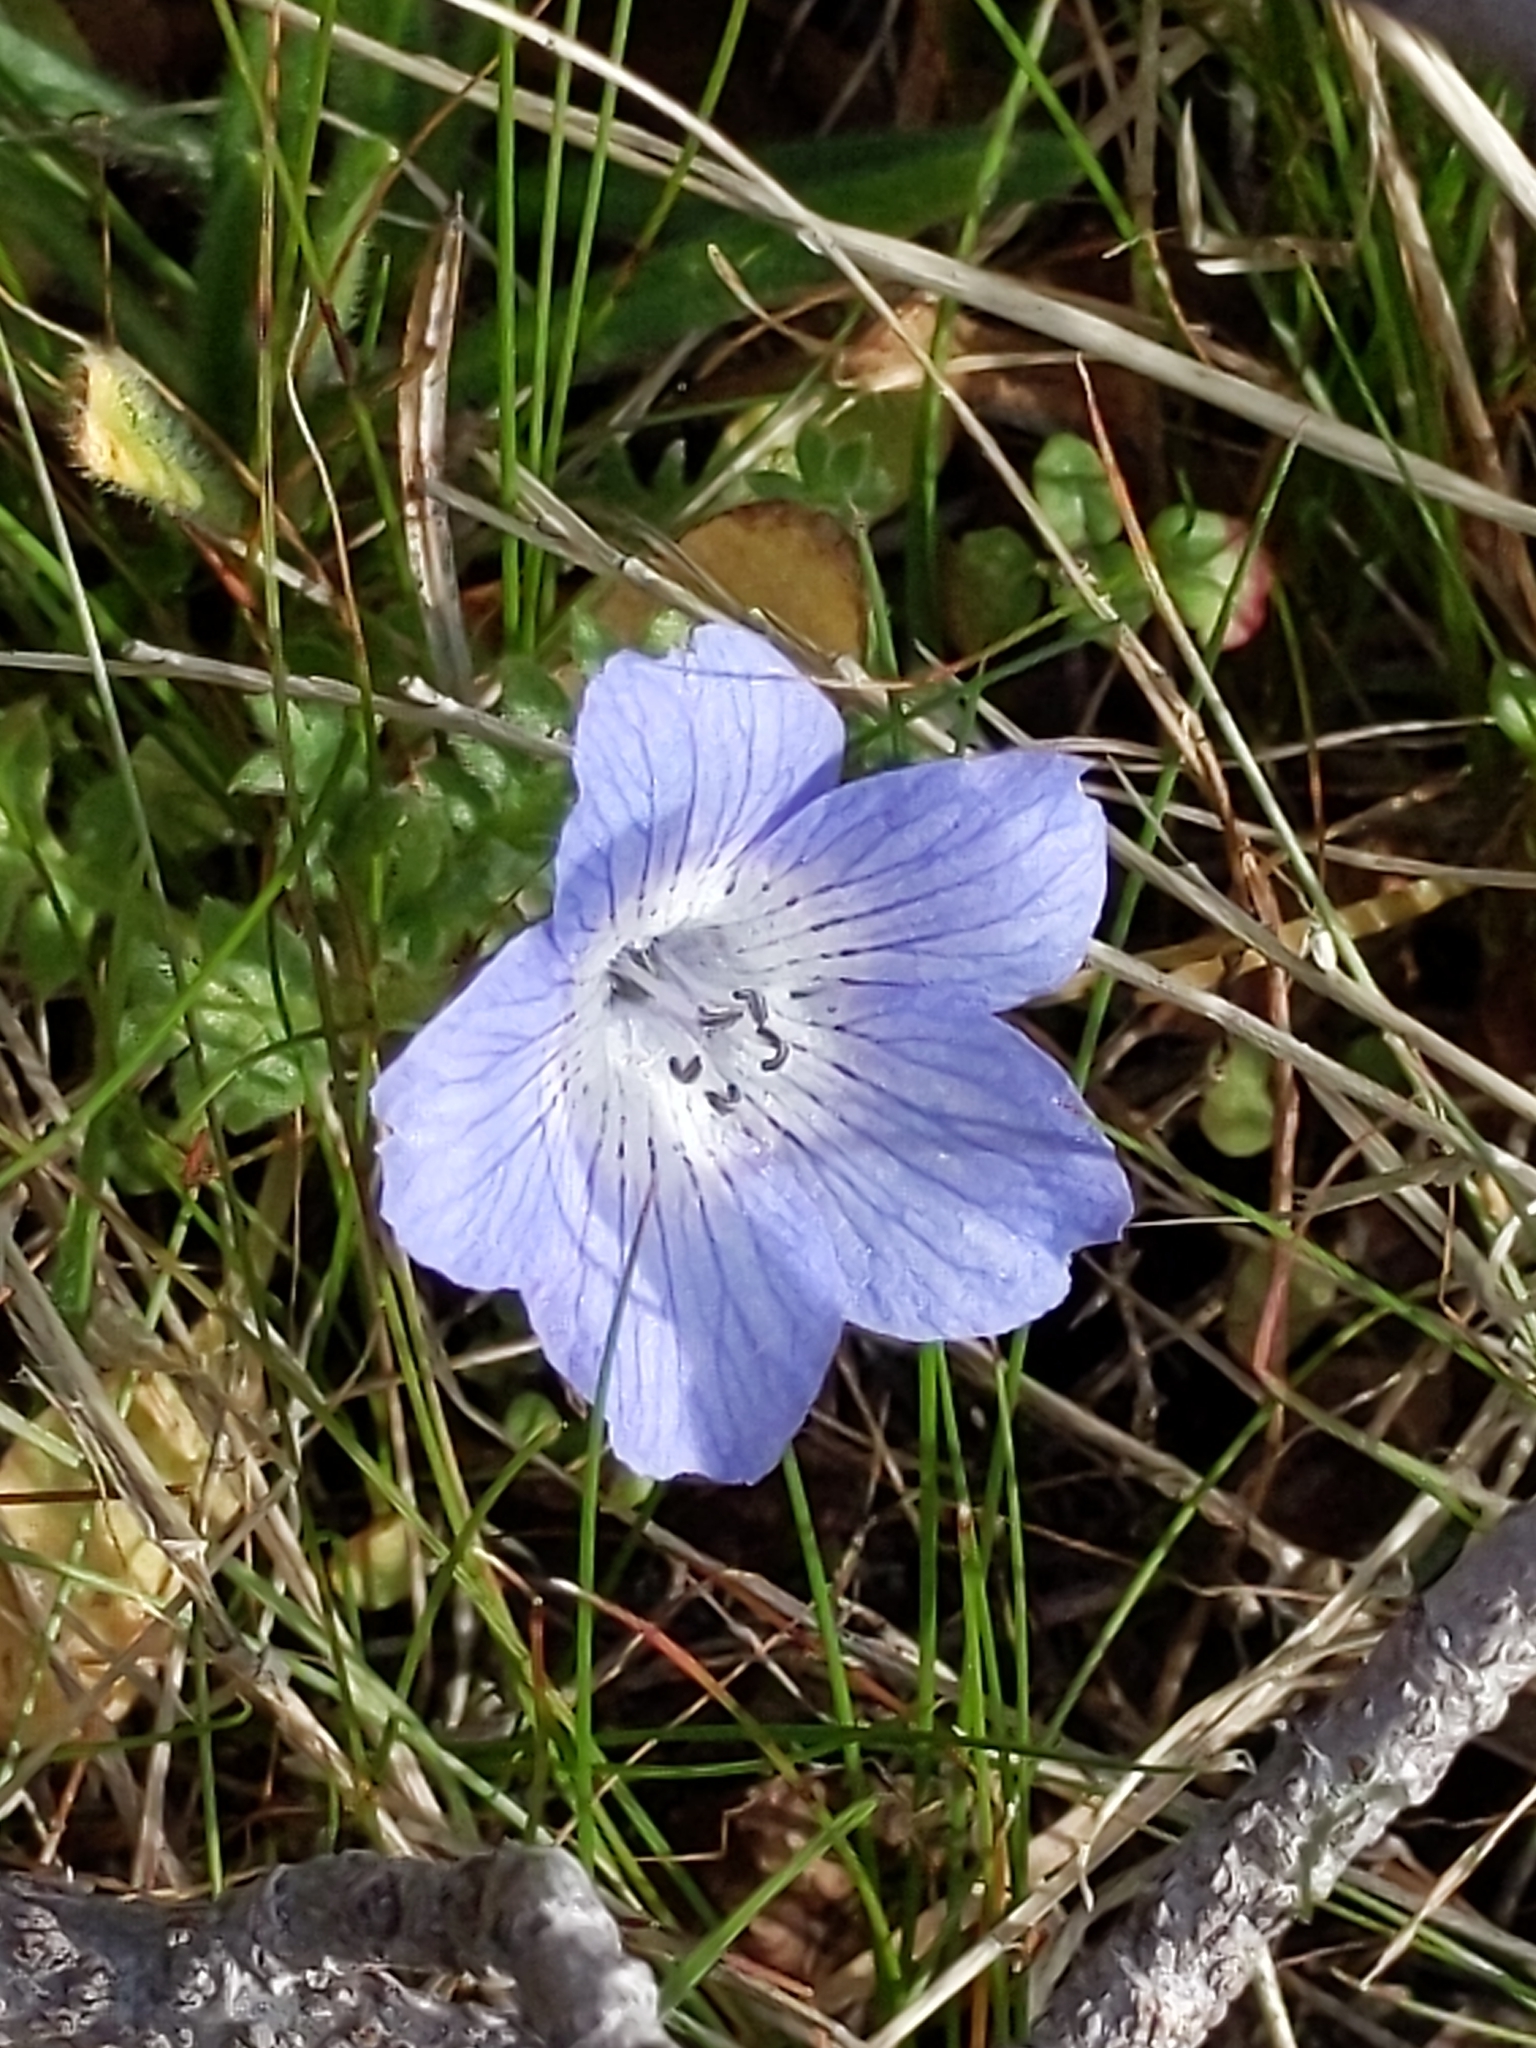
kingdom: Plantae
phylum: Tracheophyta
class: Magnoliopsida
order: Boraginales
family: Hydrophyllaceae
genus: Nemophila
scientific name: Nemophila menziesii
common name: Baby's-blue-eyes
